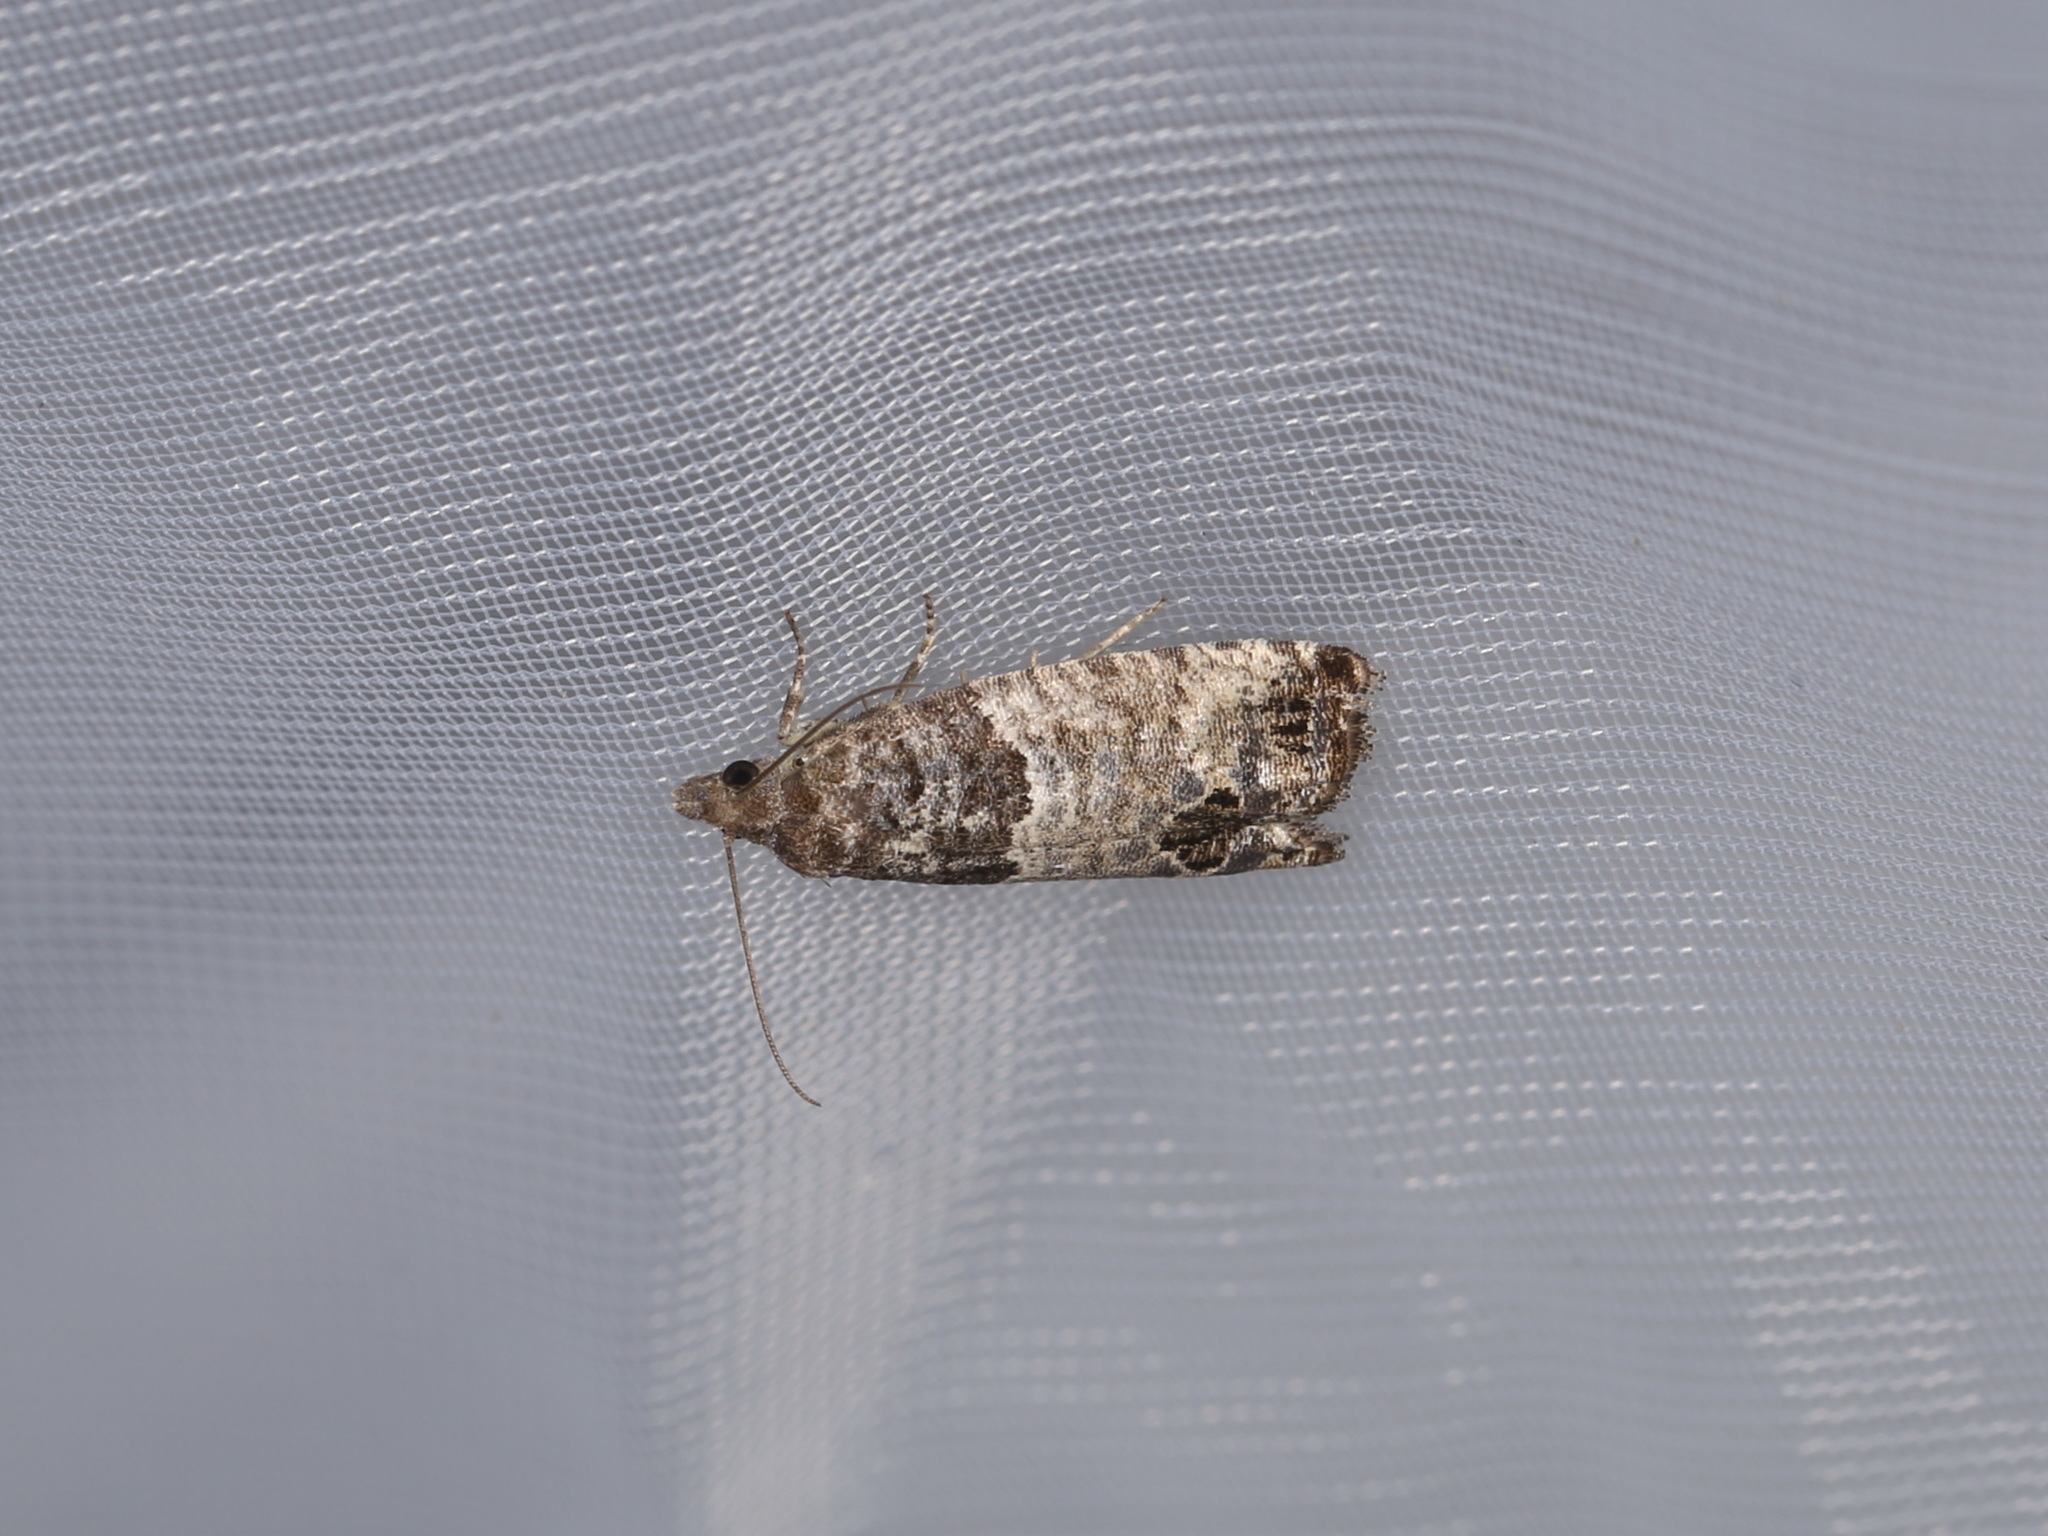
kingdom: Animalia
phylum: Arthropoda
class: Insecta
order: Lepidoptera
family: Tortricidae
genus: Spilonota
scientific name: Spilonota ocellana
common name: Bud moth
